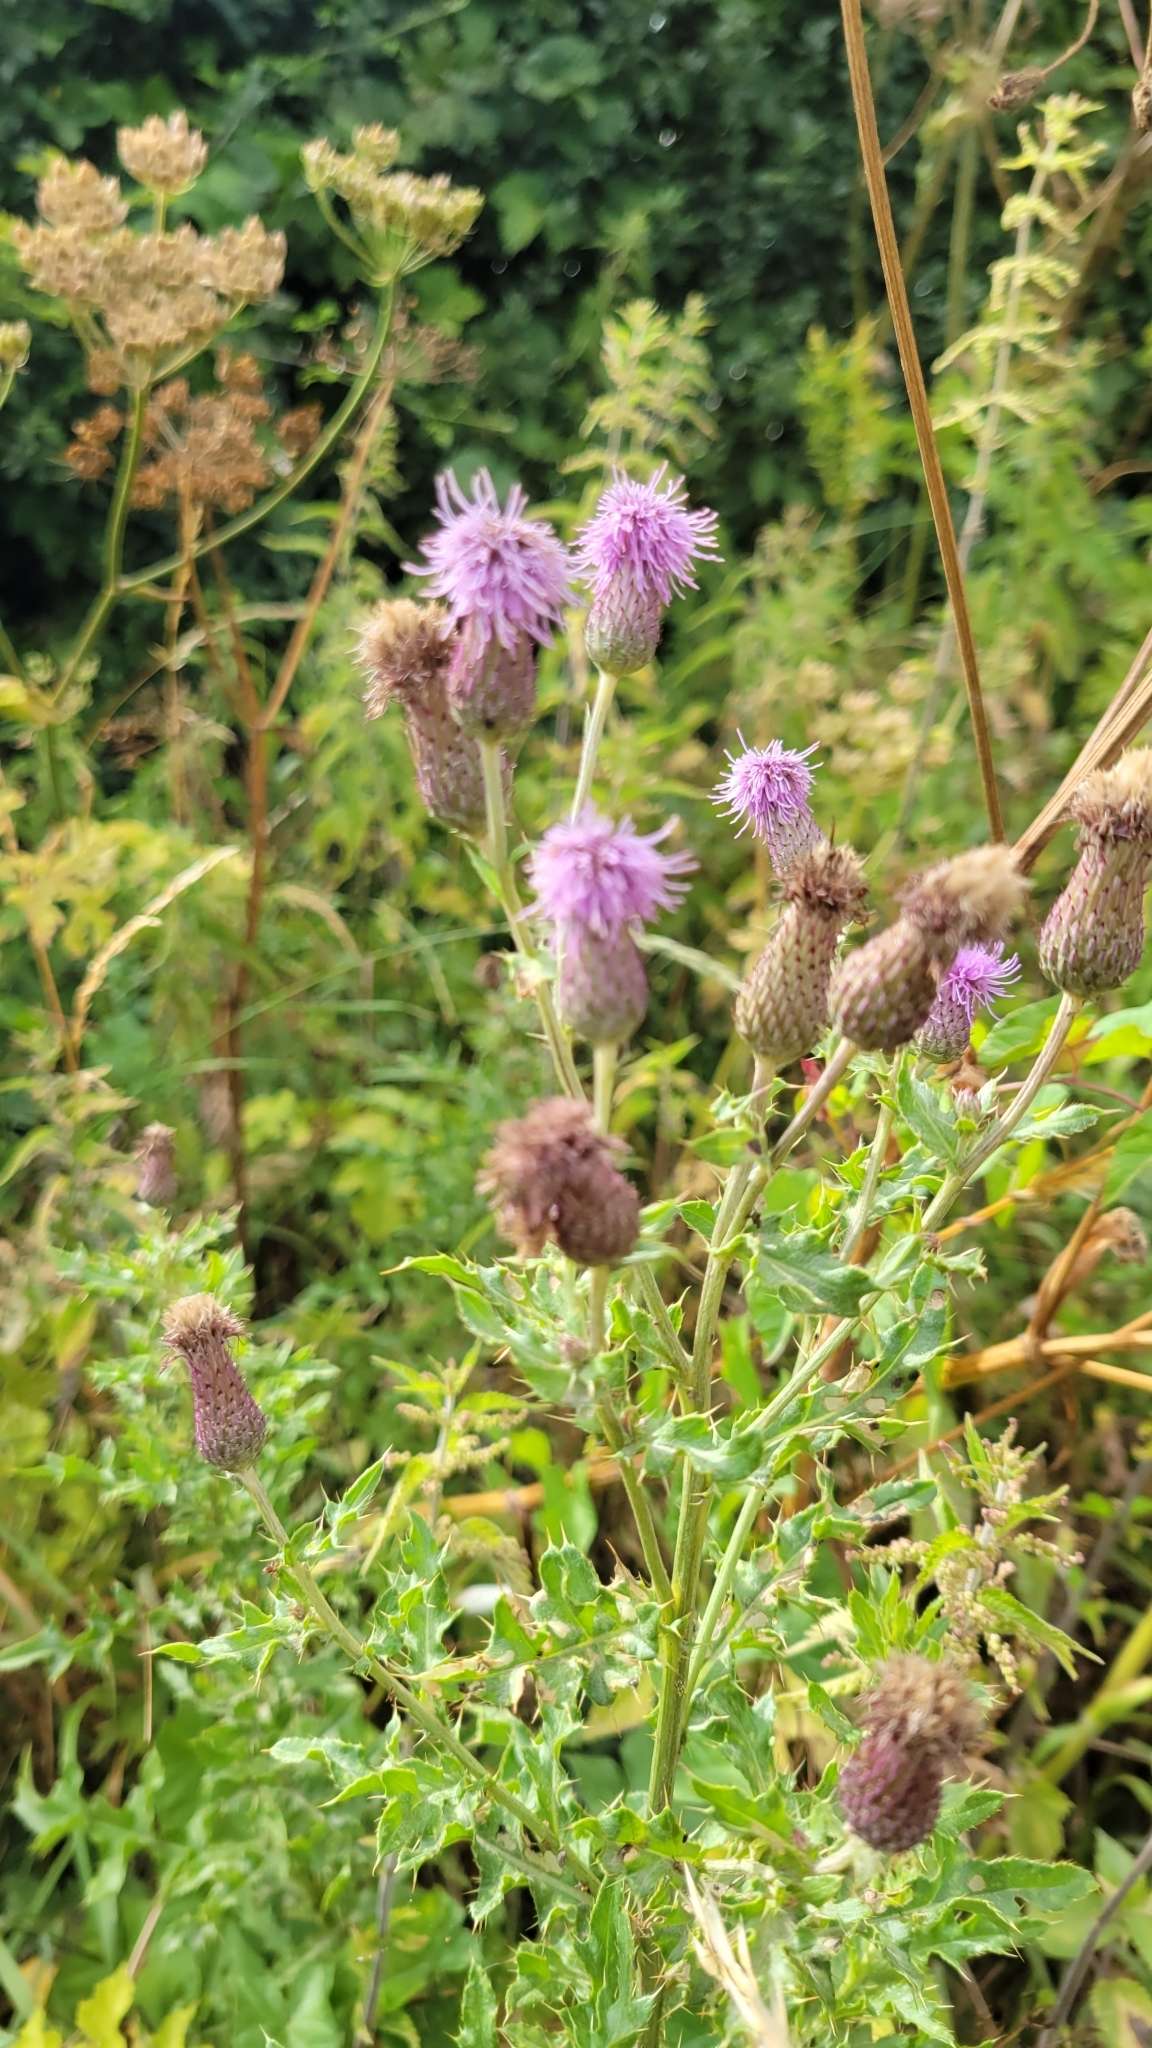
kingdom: Plantae
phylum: Tracheophyta
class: Magnoliopsida
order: Asterales
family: Asteraceae
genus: Cirsium
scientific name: Cirsium arvense
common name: Creeping thistle
